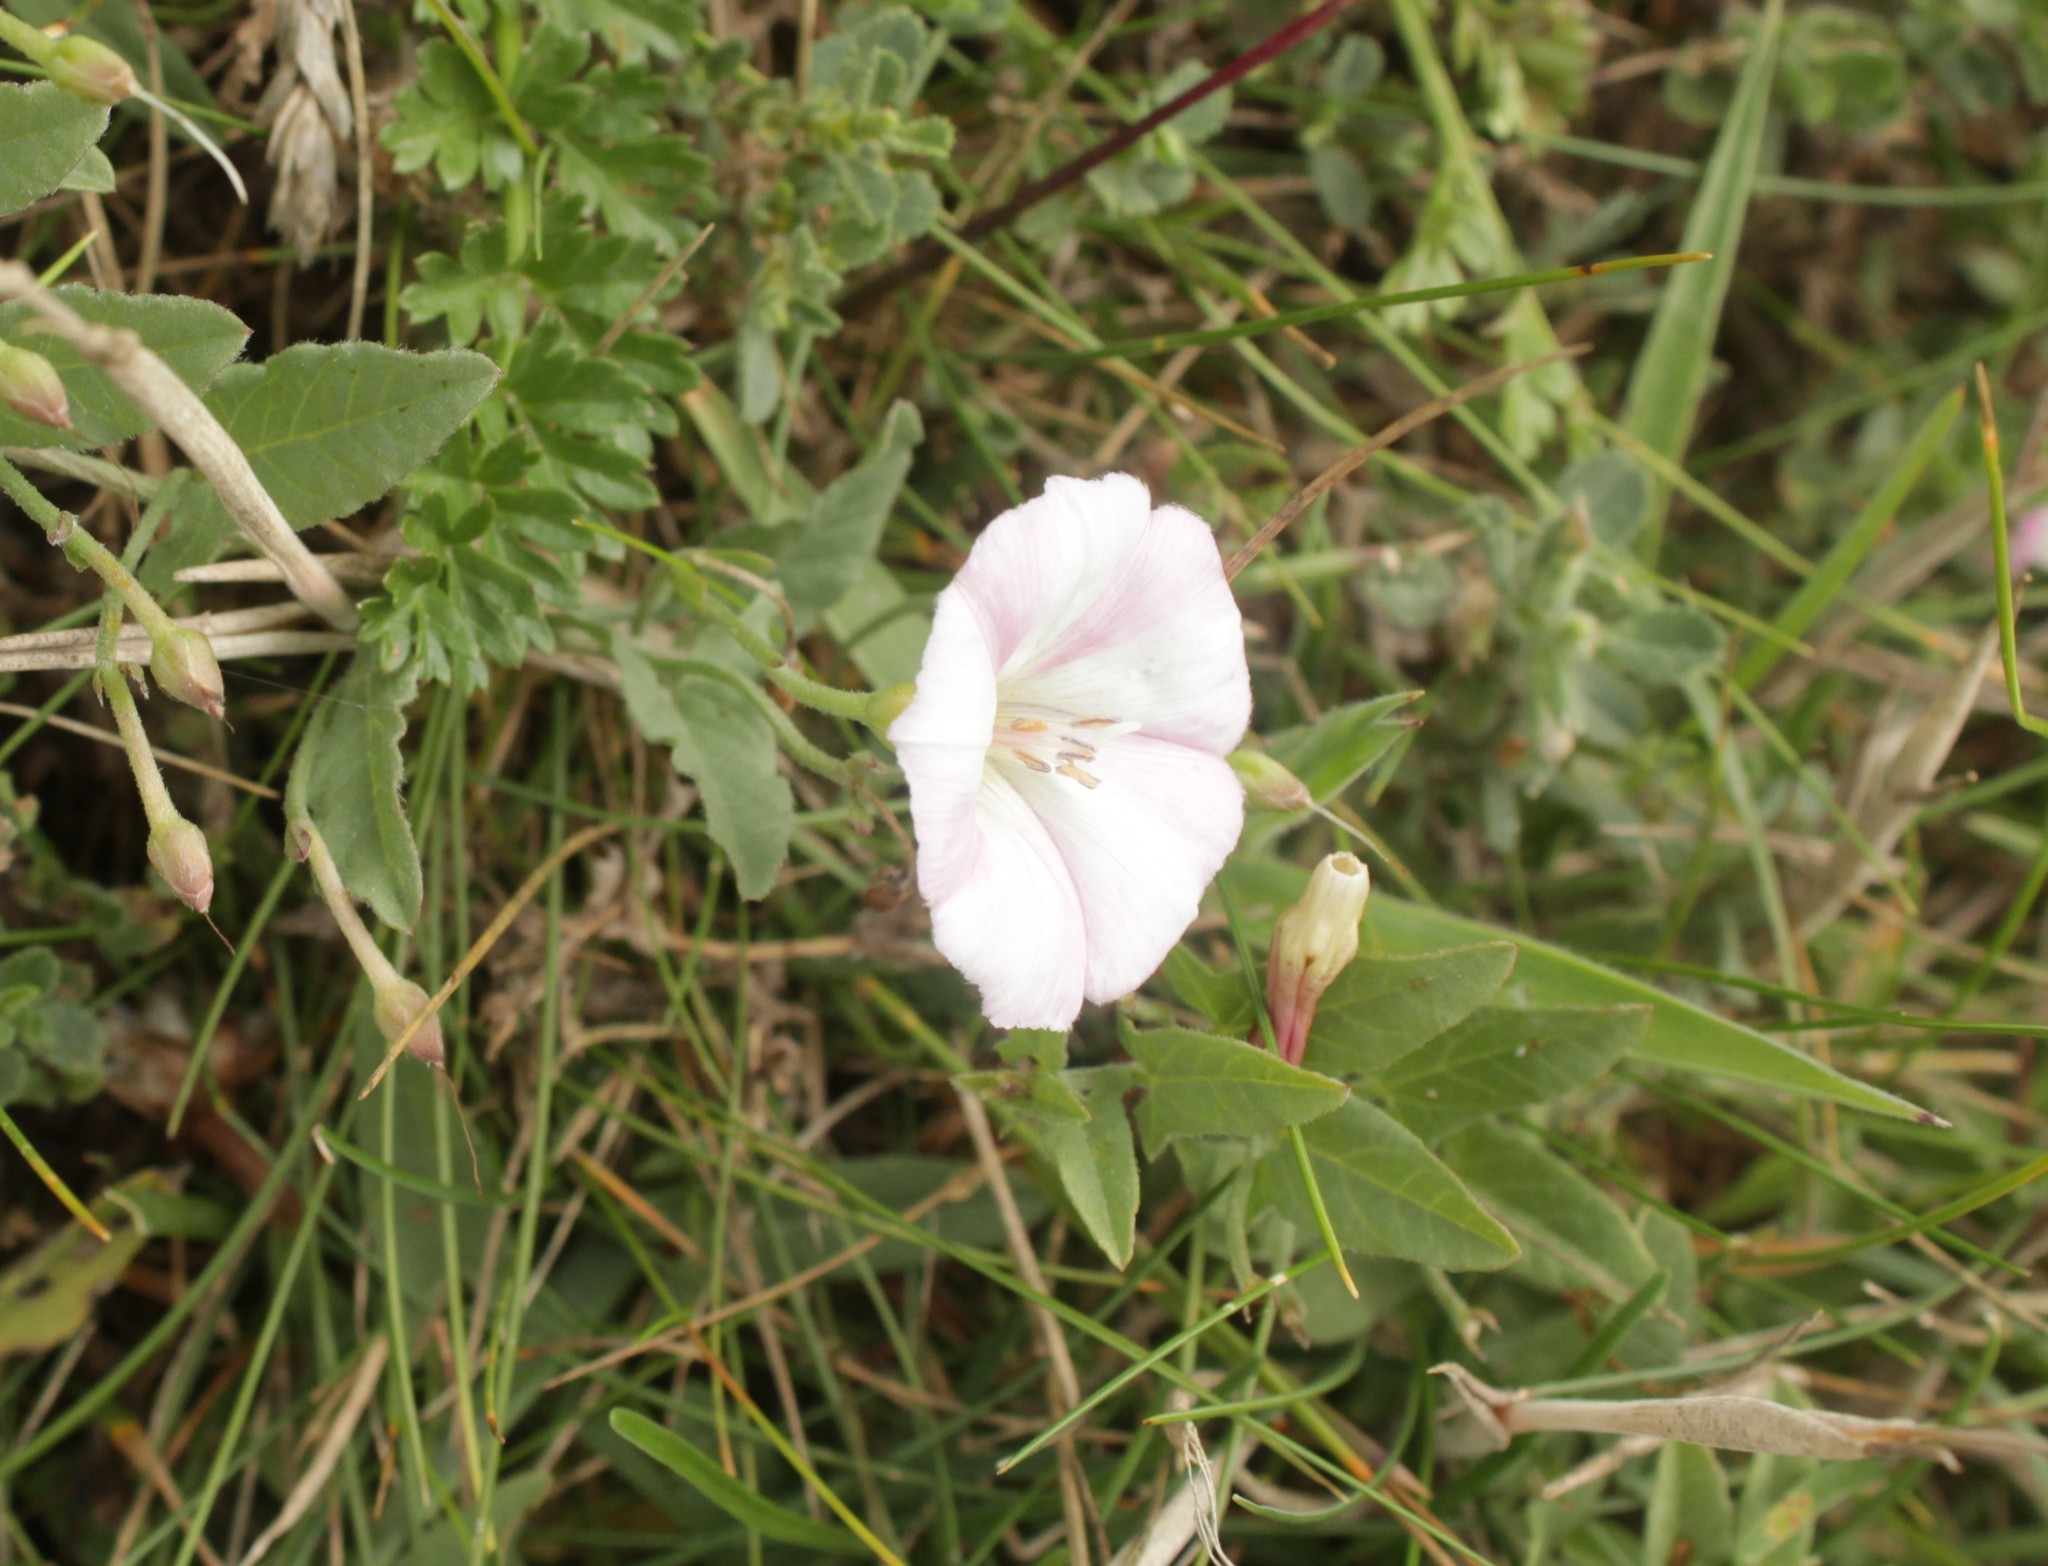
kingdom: Plantae
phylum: Tracheophyta
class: Magnoliopsida
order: Solanales
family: Convolvulaceae
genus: Convolvulus
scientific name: Convolvulus arvensis
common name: Field bindweed
